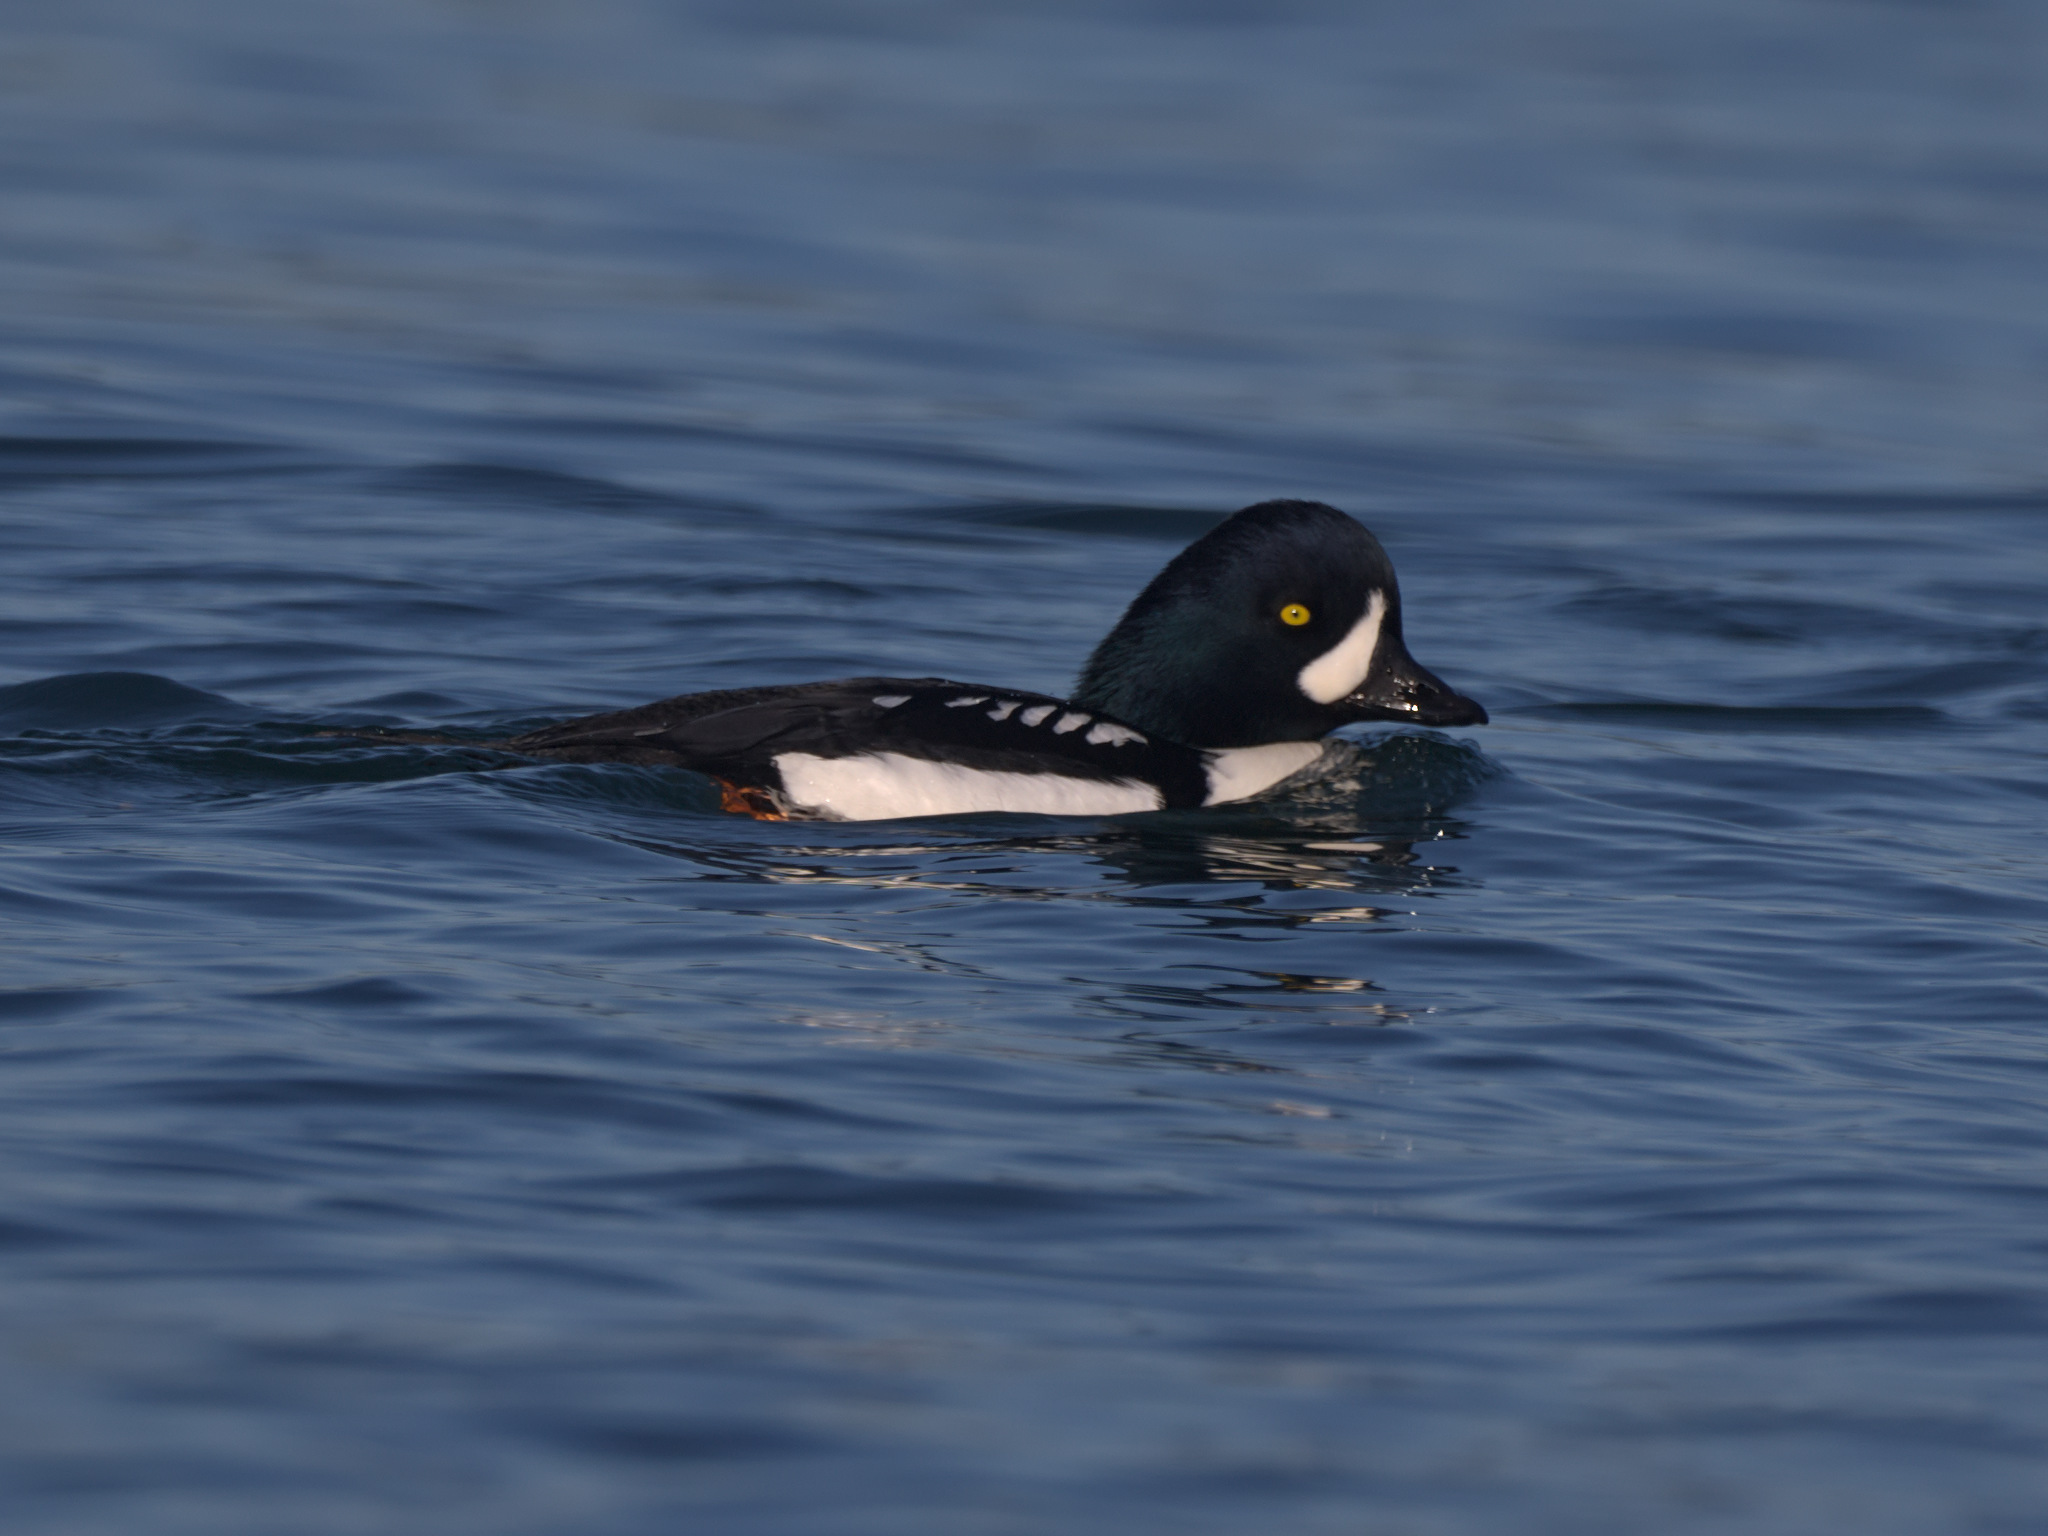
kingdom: Animalia
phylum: Chordata
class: Aves
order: Anseriformes
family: Anatidae
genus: Bucephala
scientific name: Bucephala islandica
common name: Barrow's goldeneye
